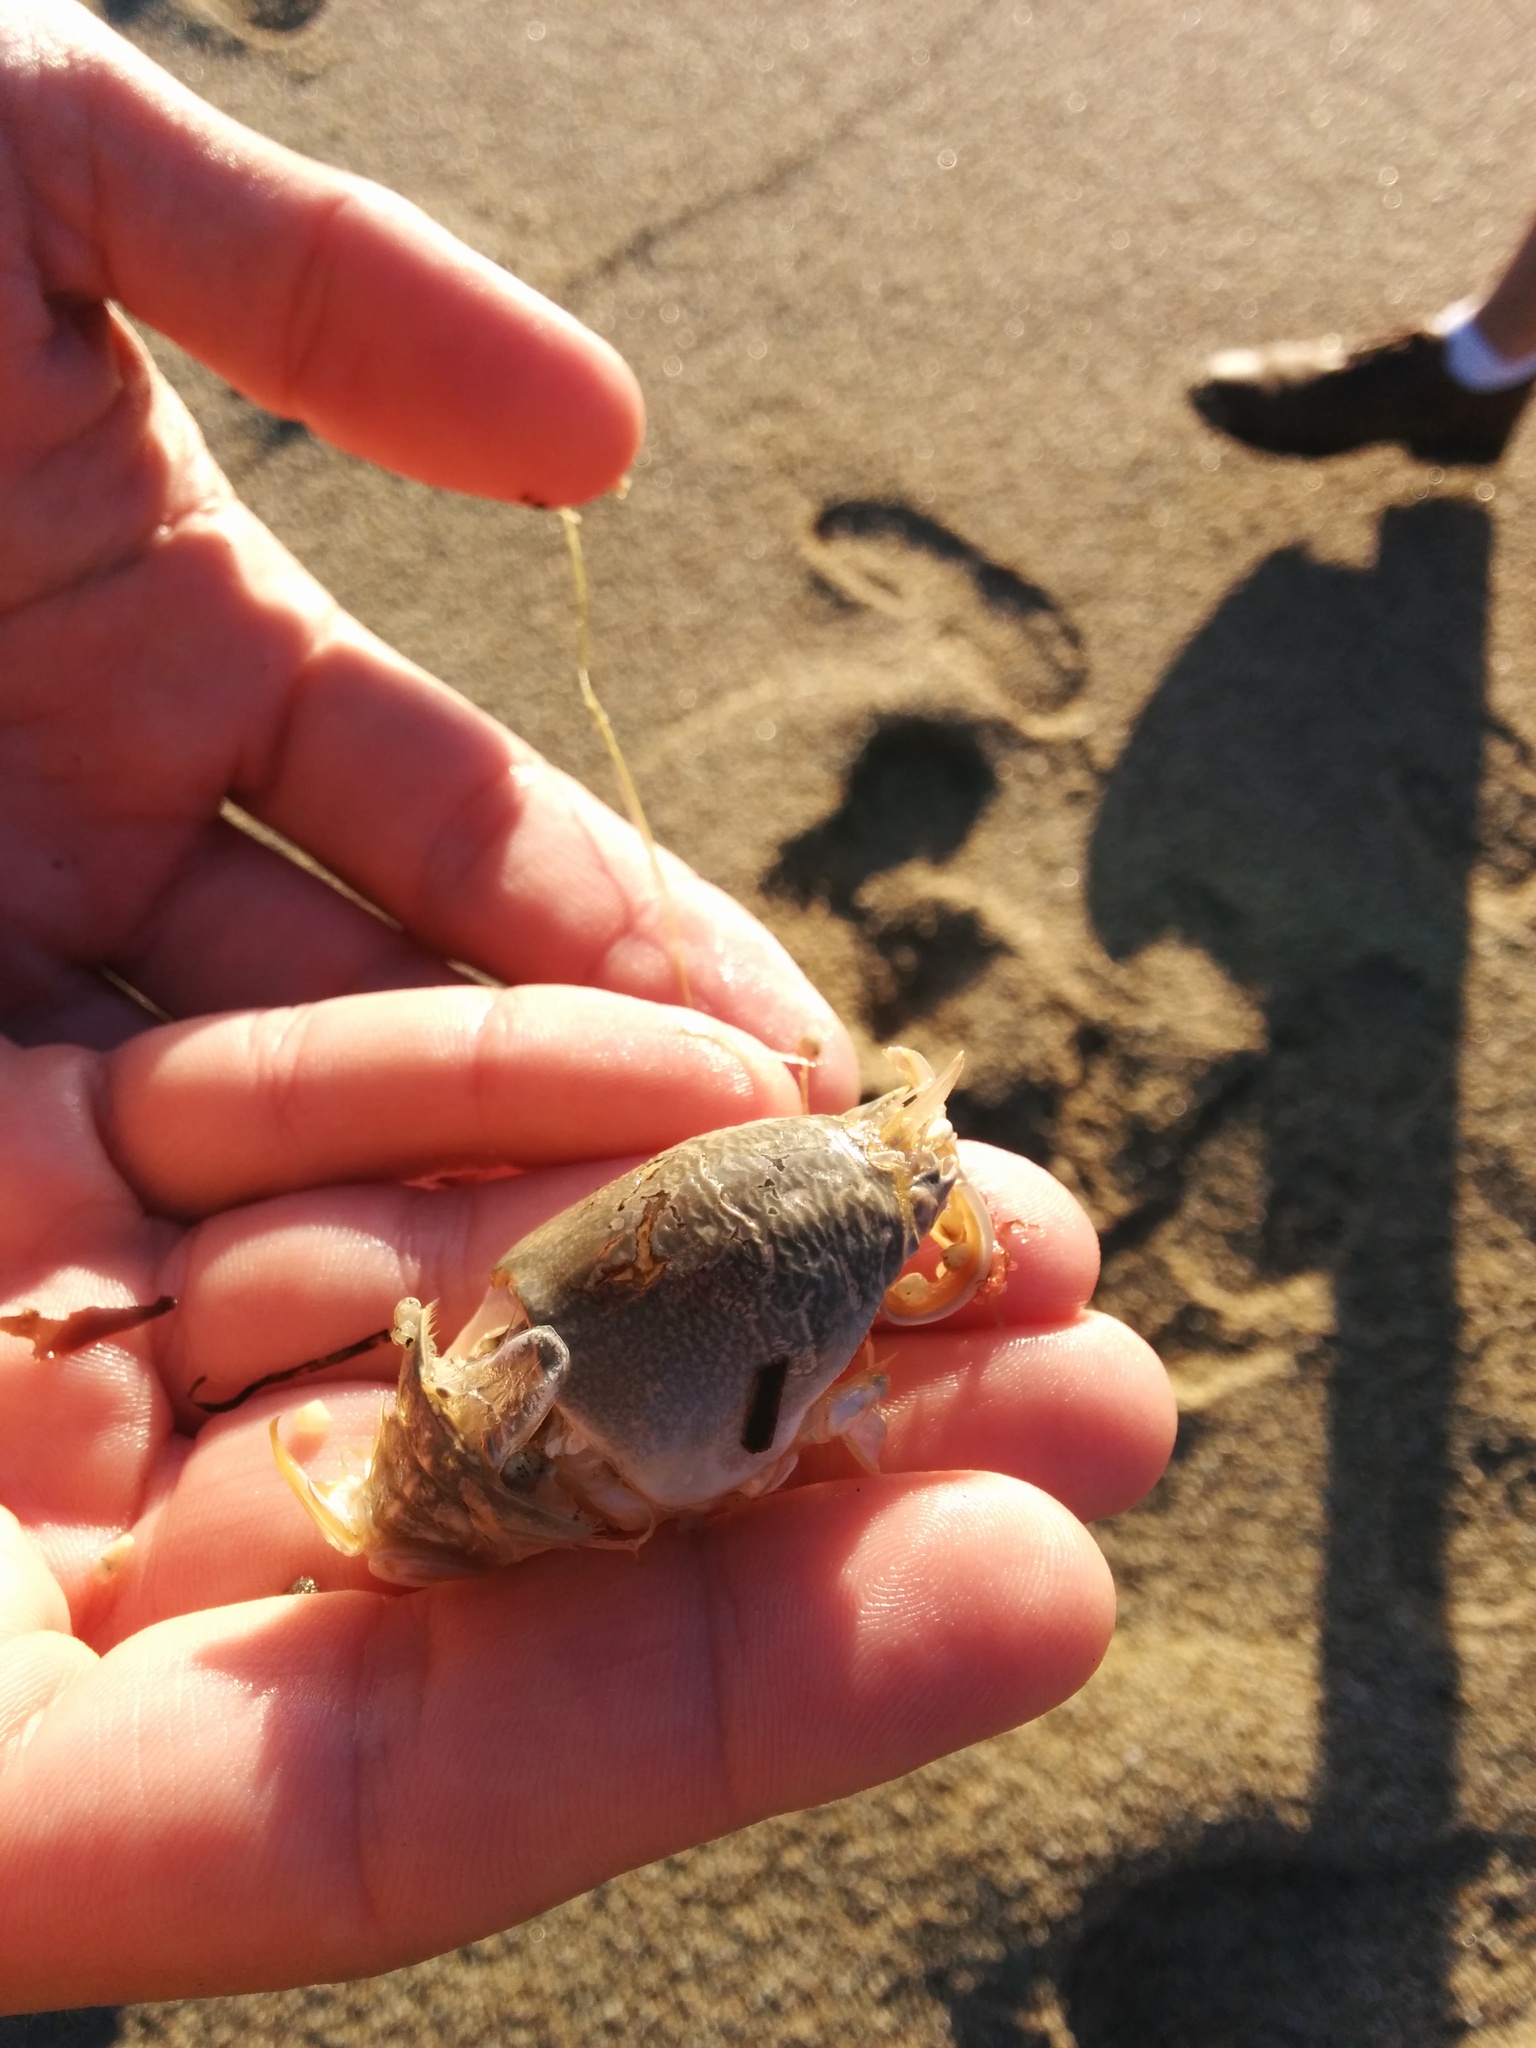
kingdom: Animalia
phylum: Arthropoda
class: Malacostraca
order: Decapoda
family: Hippidae
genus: Emerita
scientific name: Emerita analoga
